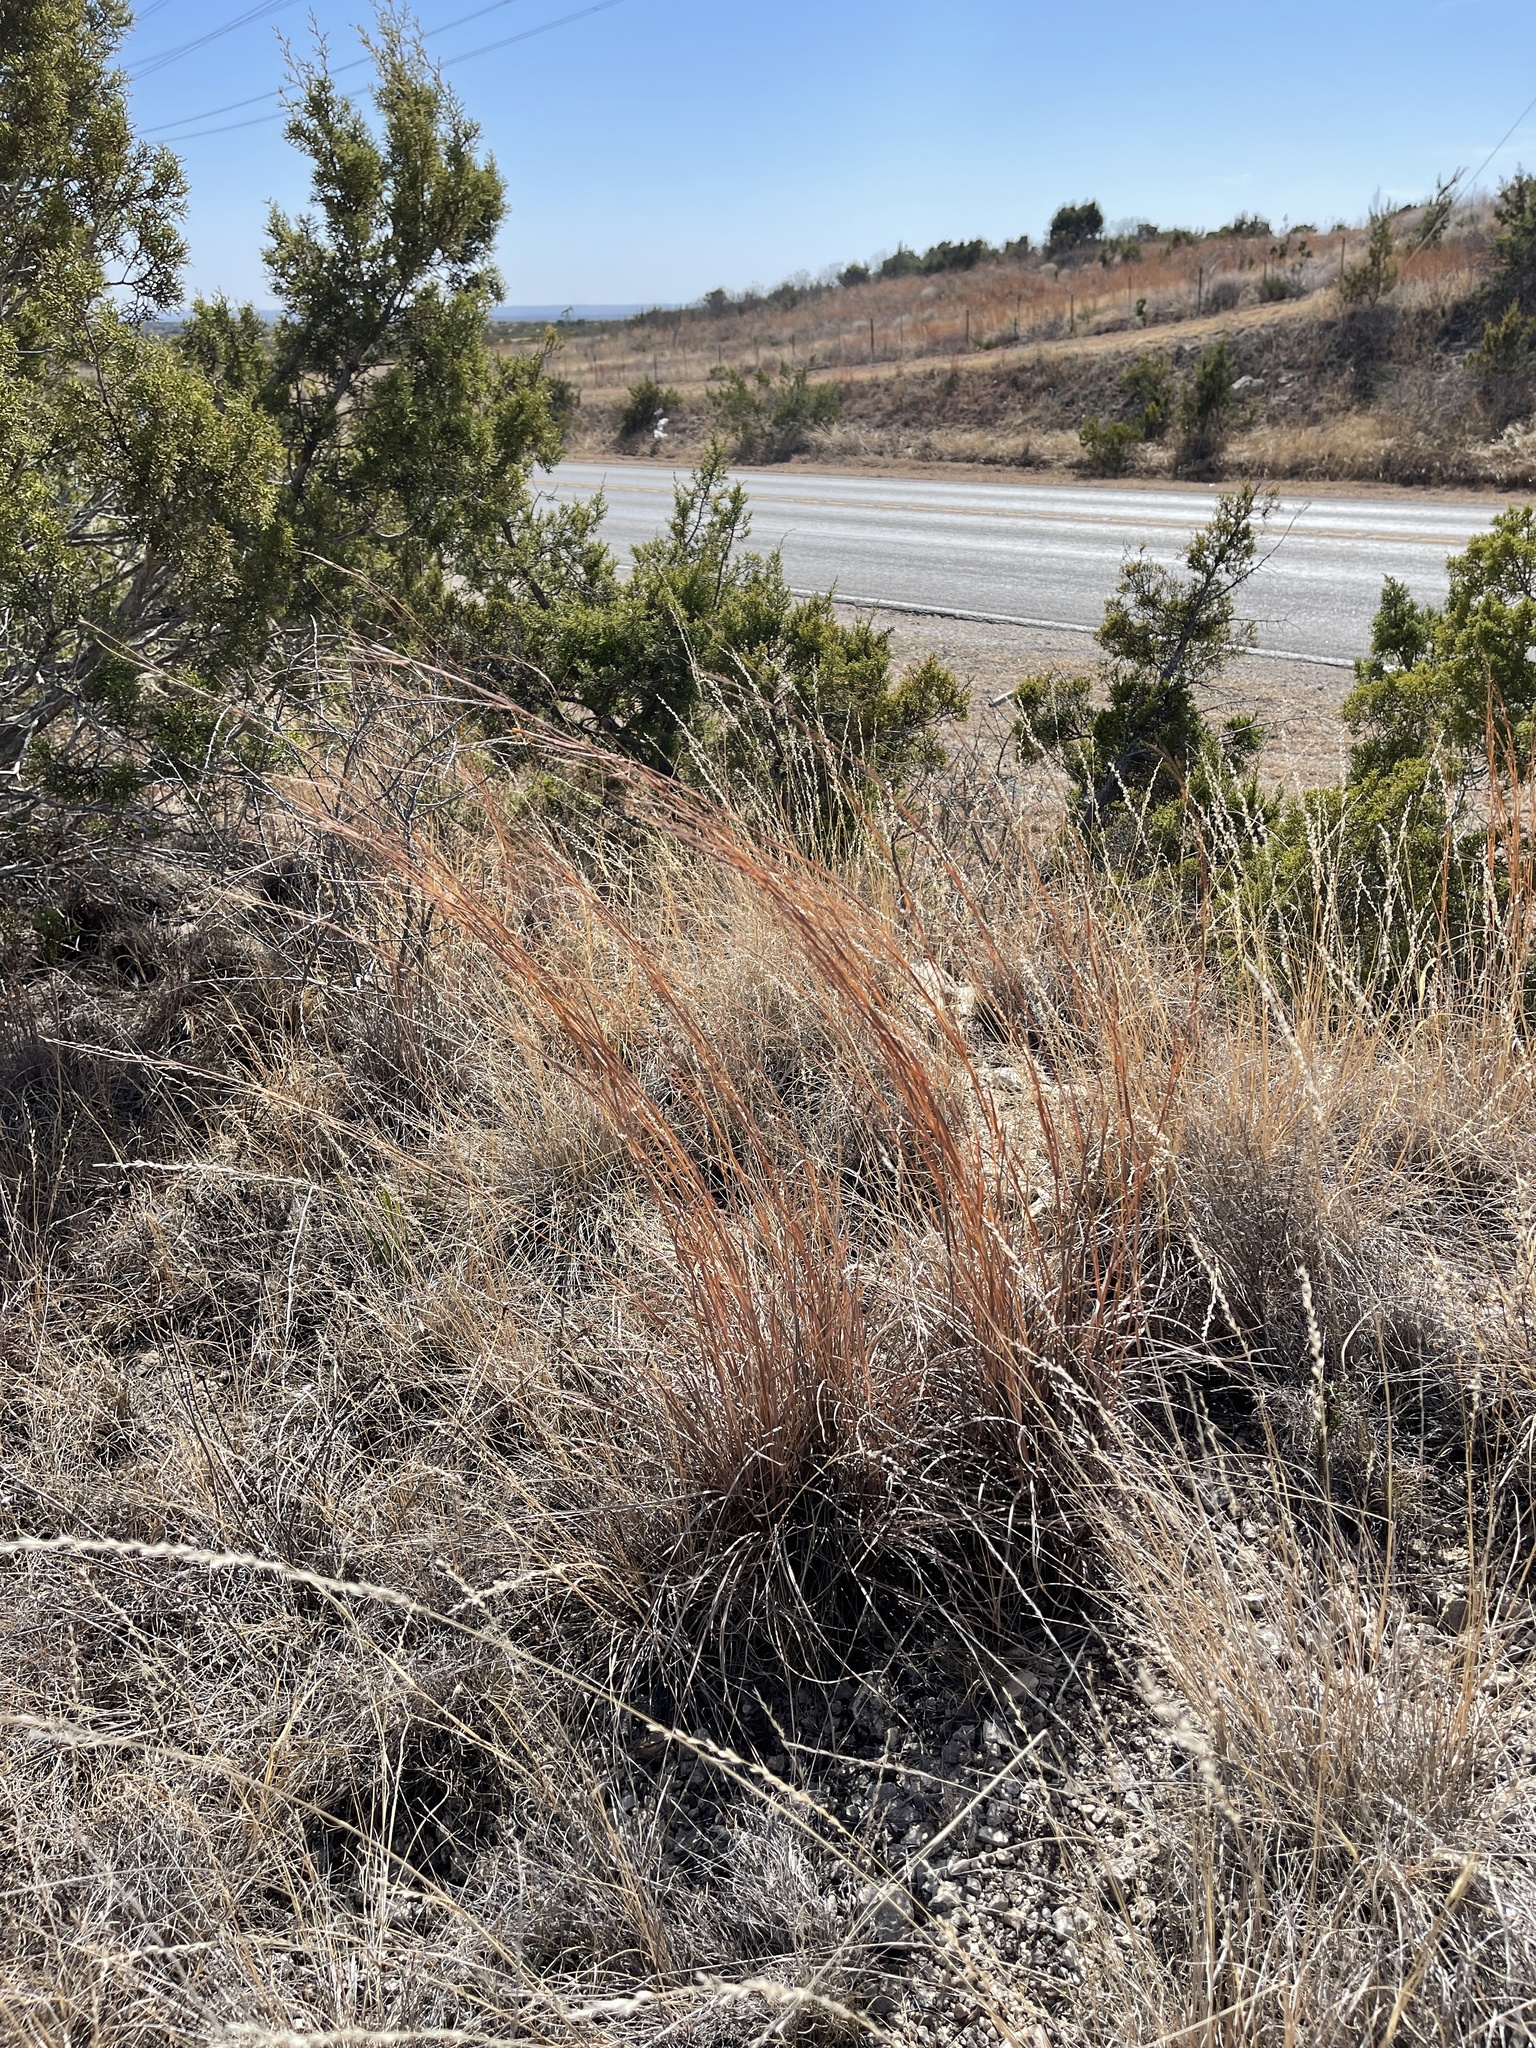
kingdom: Plantae
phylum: Tracheophyta
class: Liliopsida
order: Poales
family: Poaceae
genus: Schizachyrium
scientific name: Schizachyrium scoparium
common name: Little bluestem
